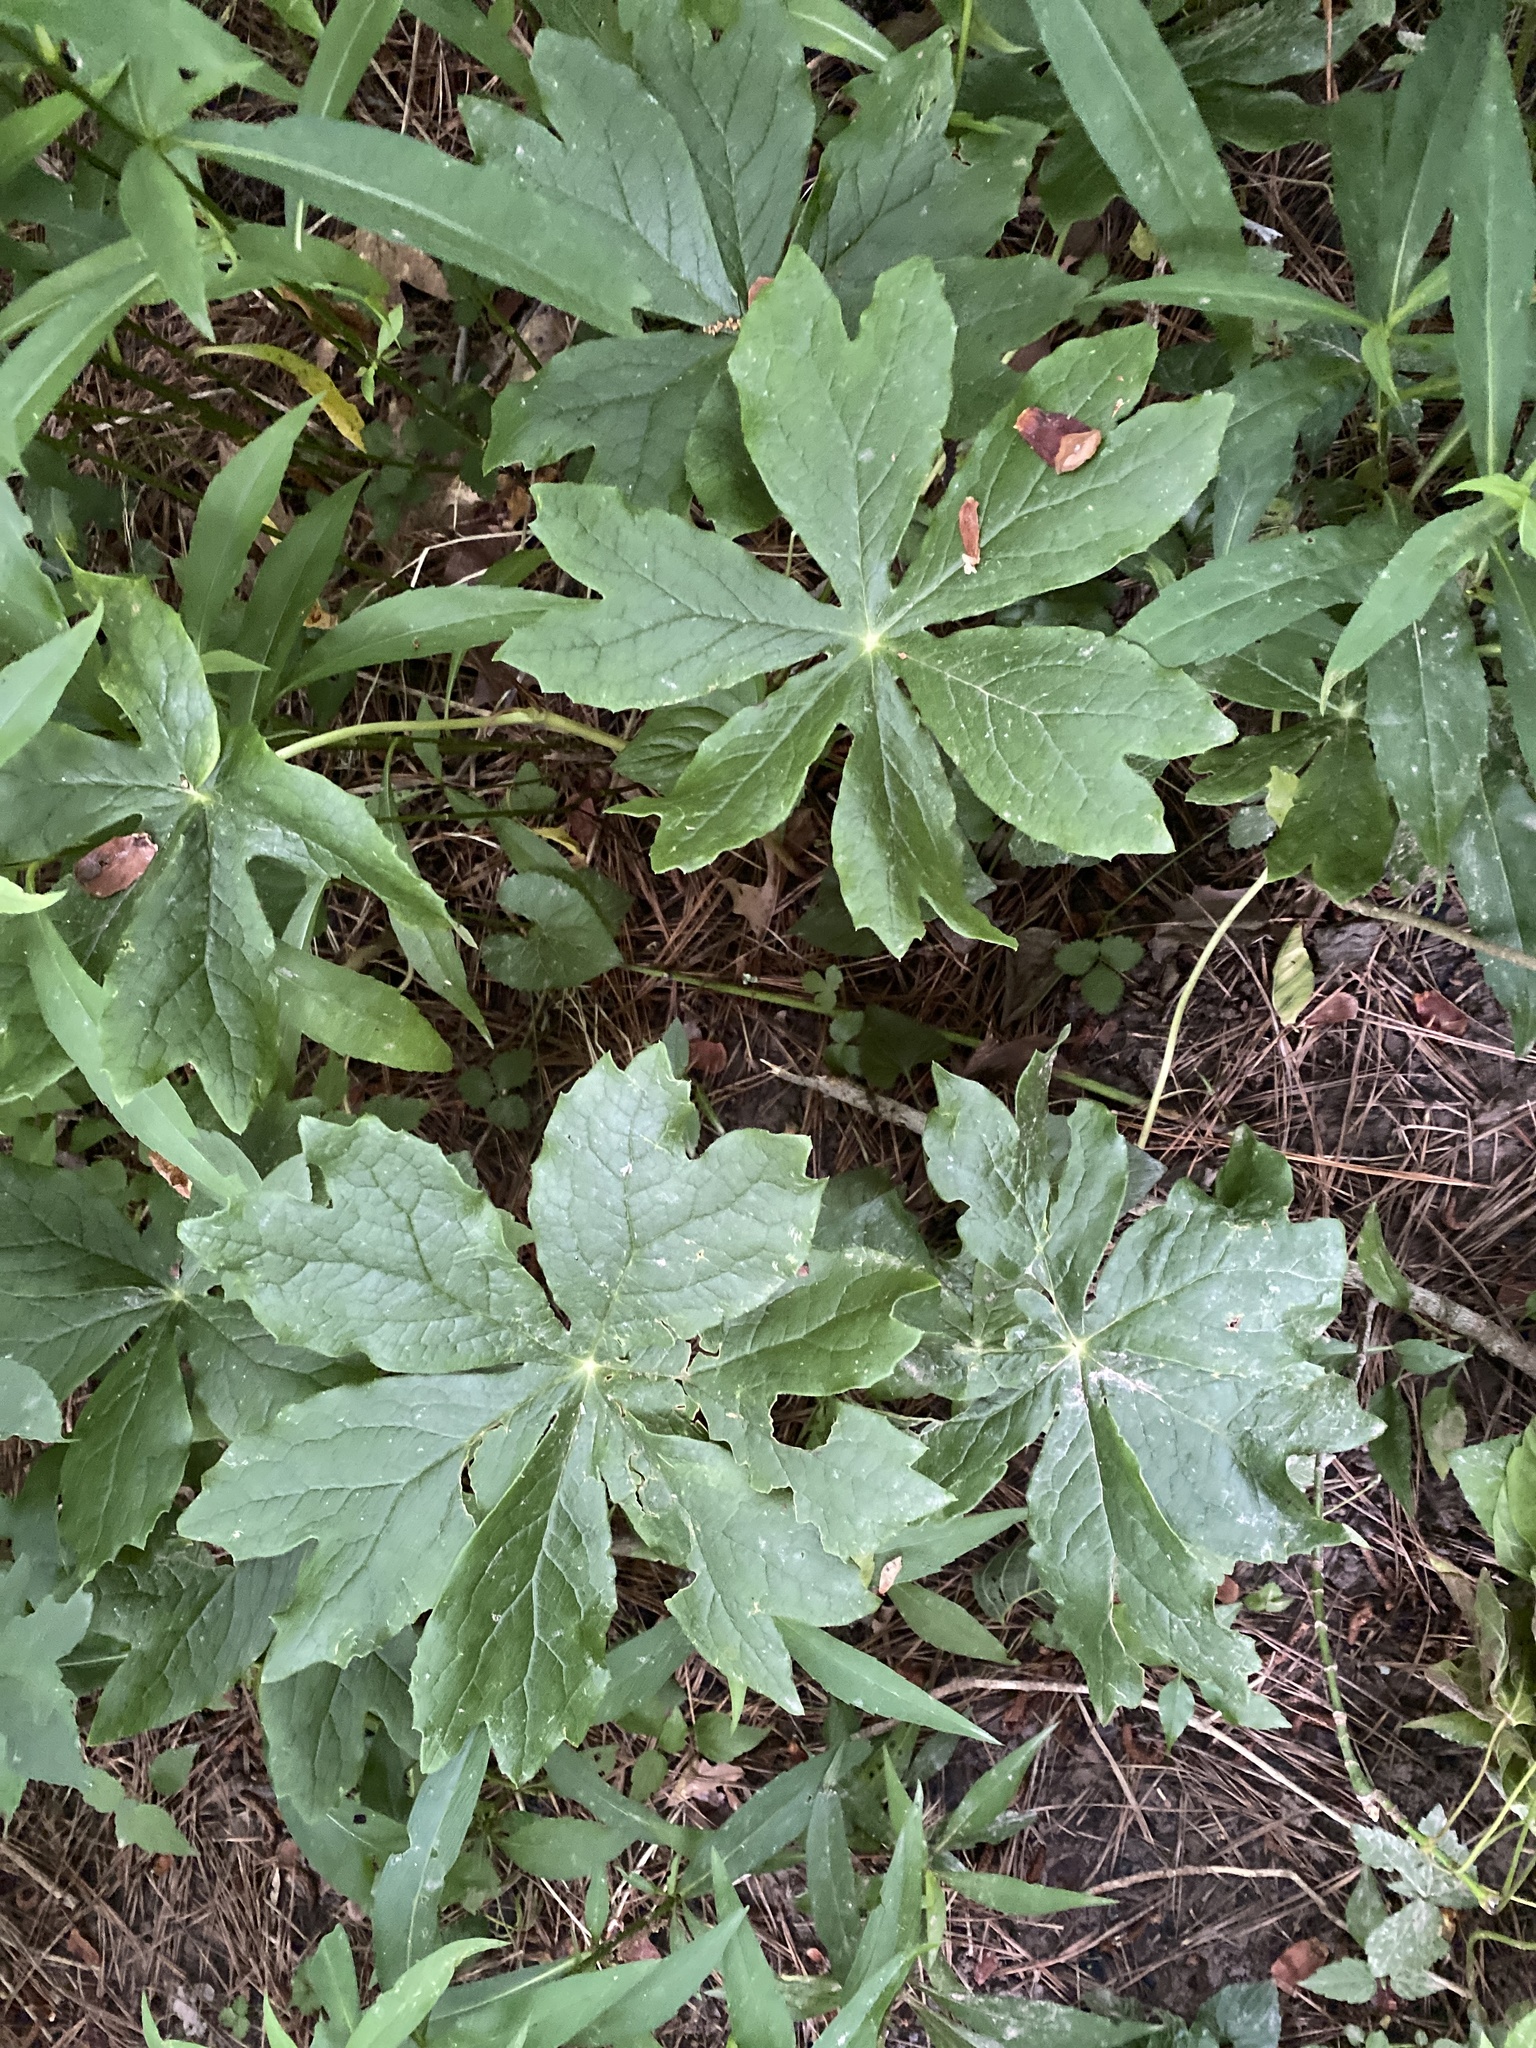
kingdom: Plantae
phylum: Tracheophyta
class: Magnoliopsida
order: Ranunculales
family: Berberidaceae
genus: Podophyllum
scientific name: Podophyllum peltatum
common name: Wild mandrake
